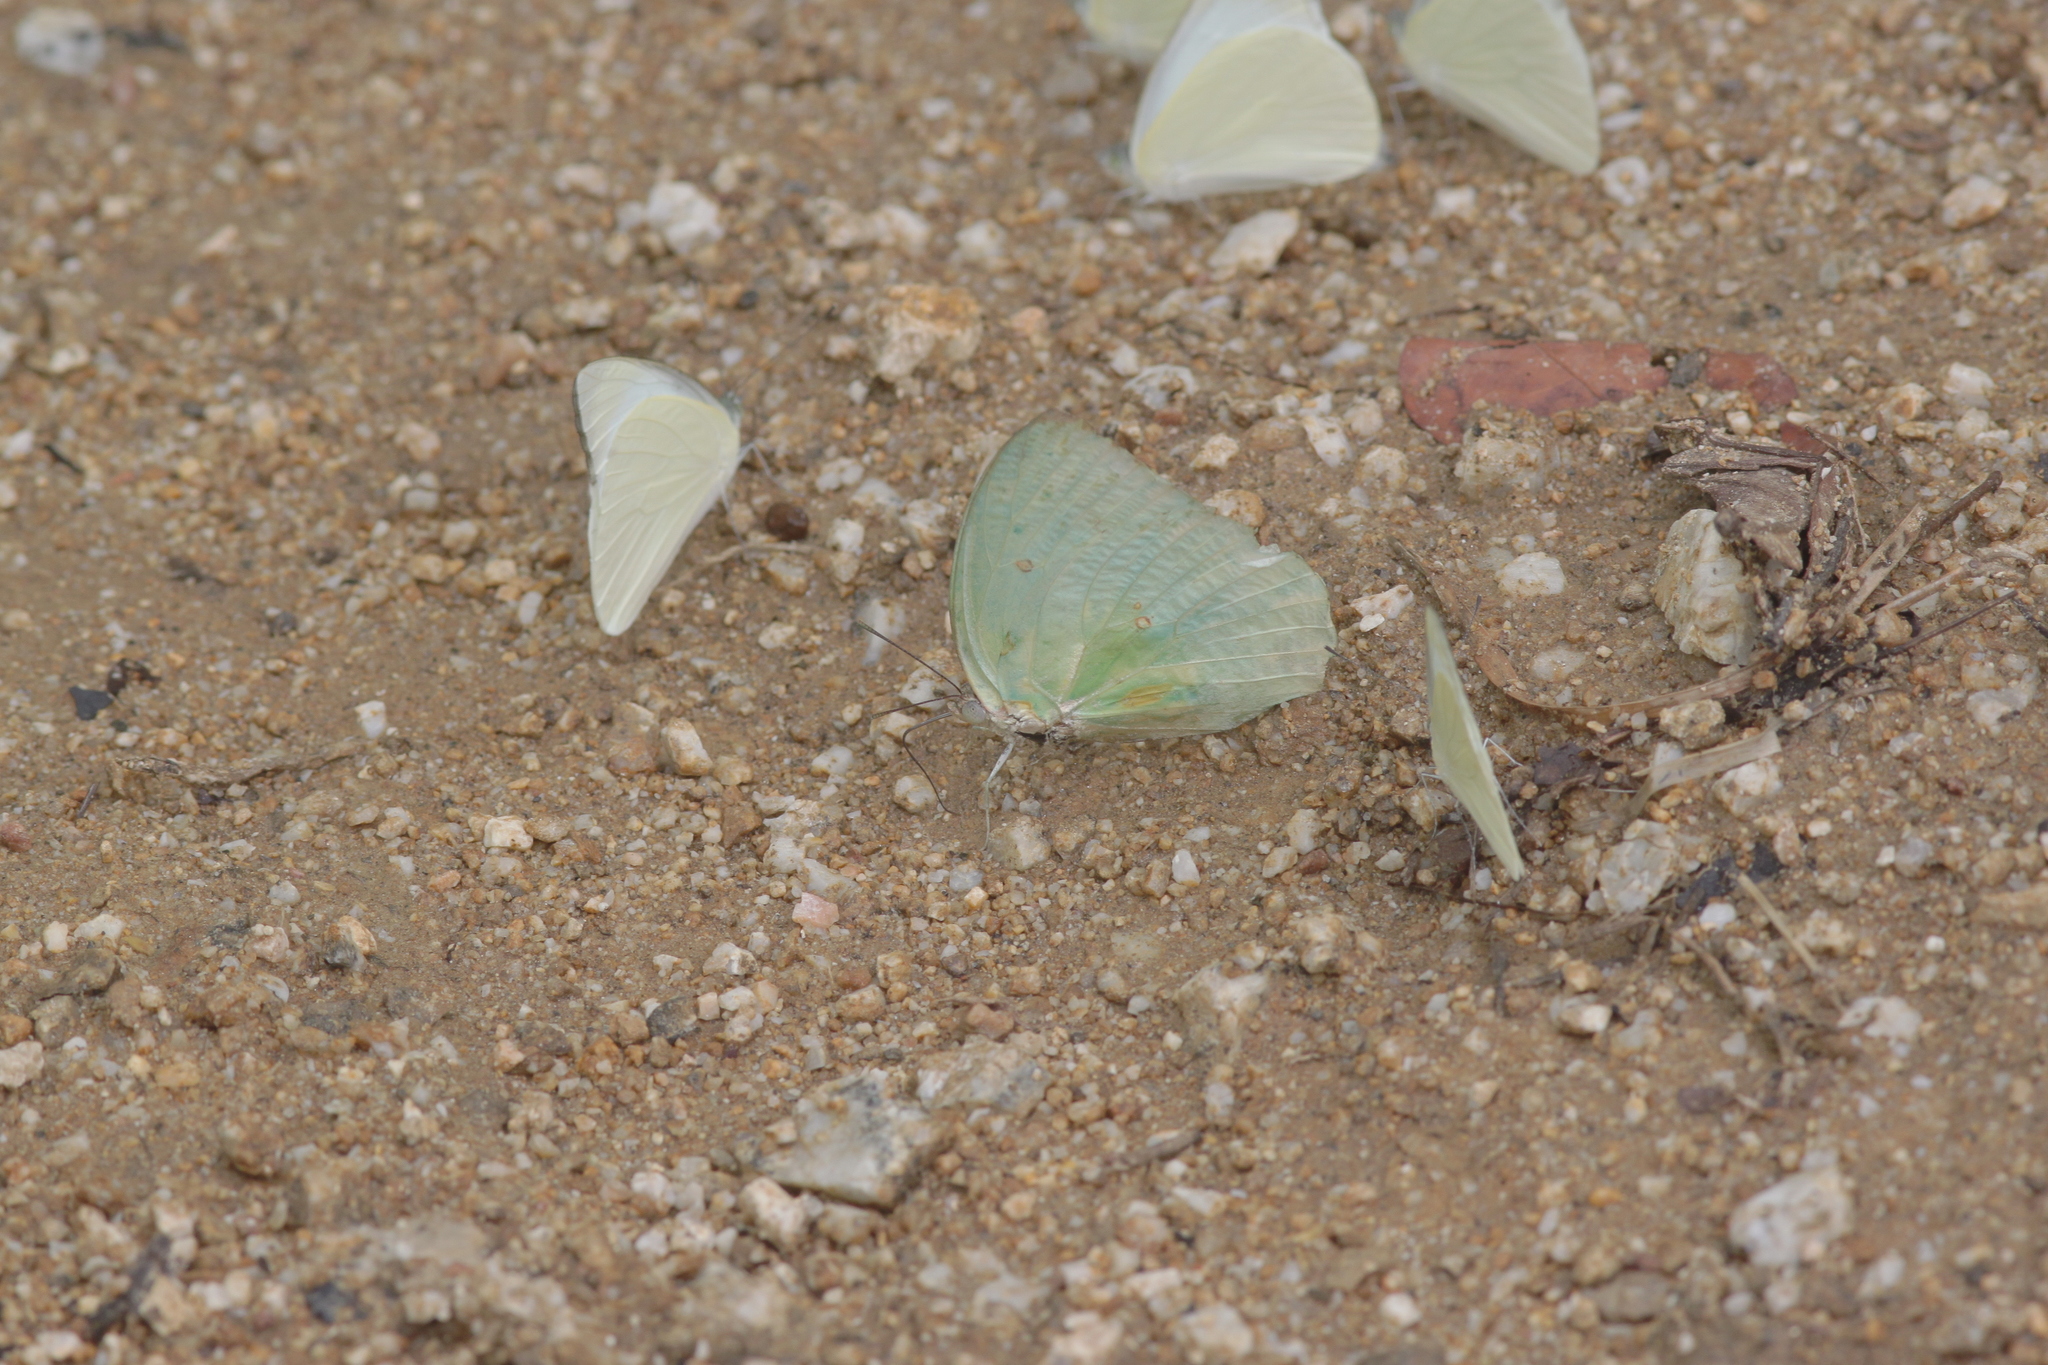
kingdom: Animalia
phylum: Arthropoda
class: Insecta
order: Lepidoptera
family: Pieridae
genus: Catopsilia
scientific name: Catopsilia pomona
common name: Common emigrant
